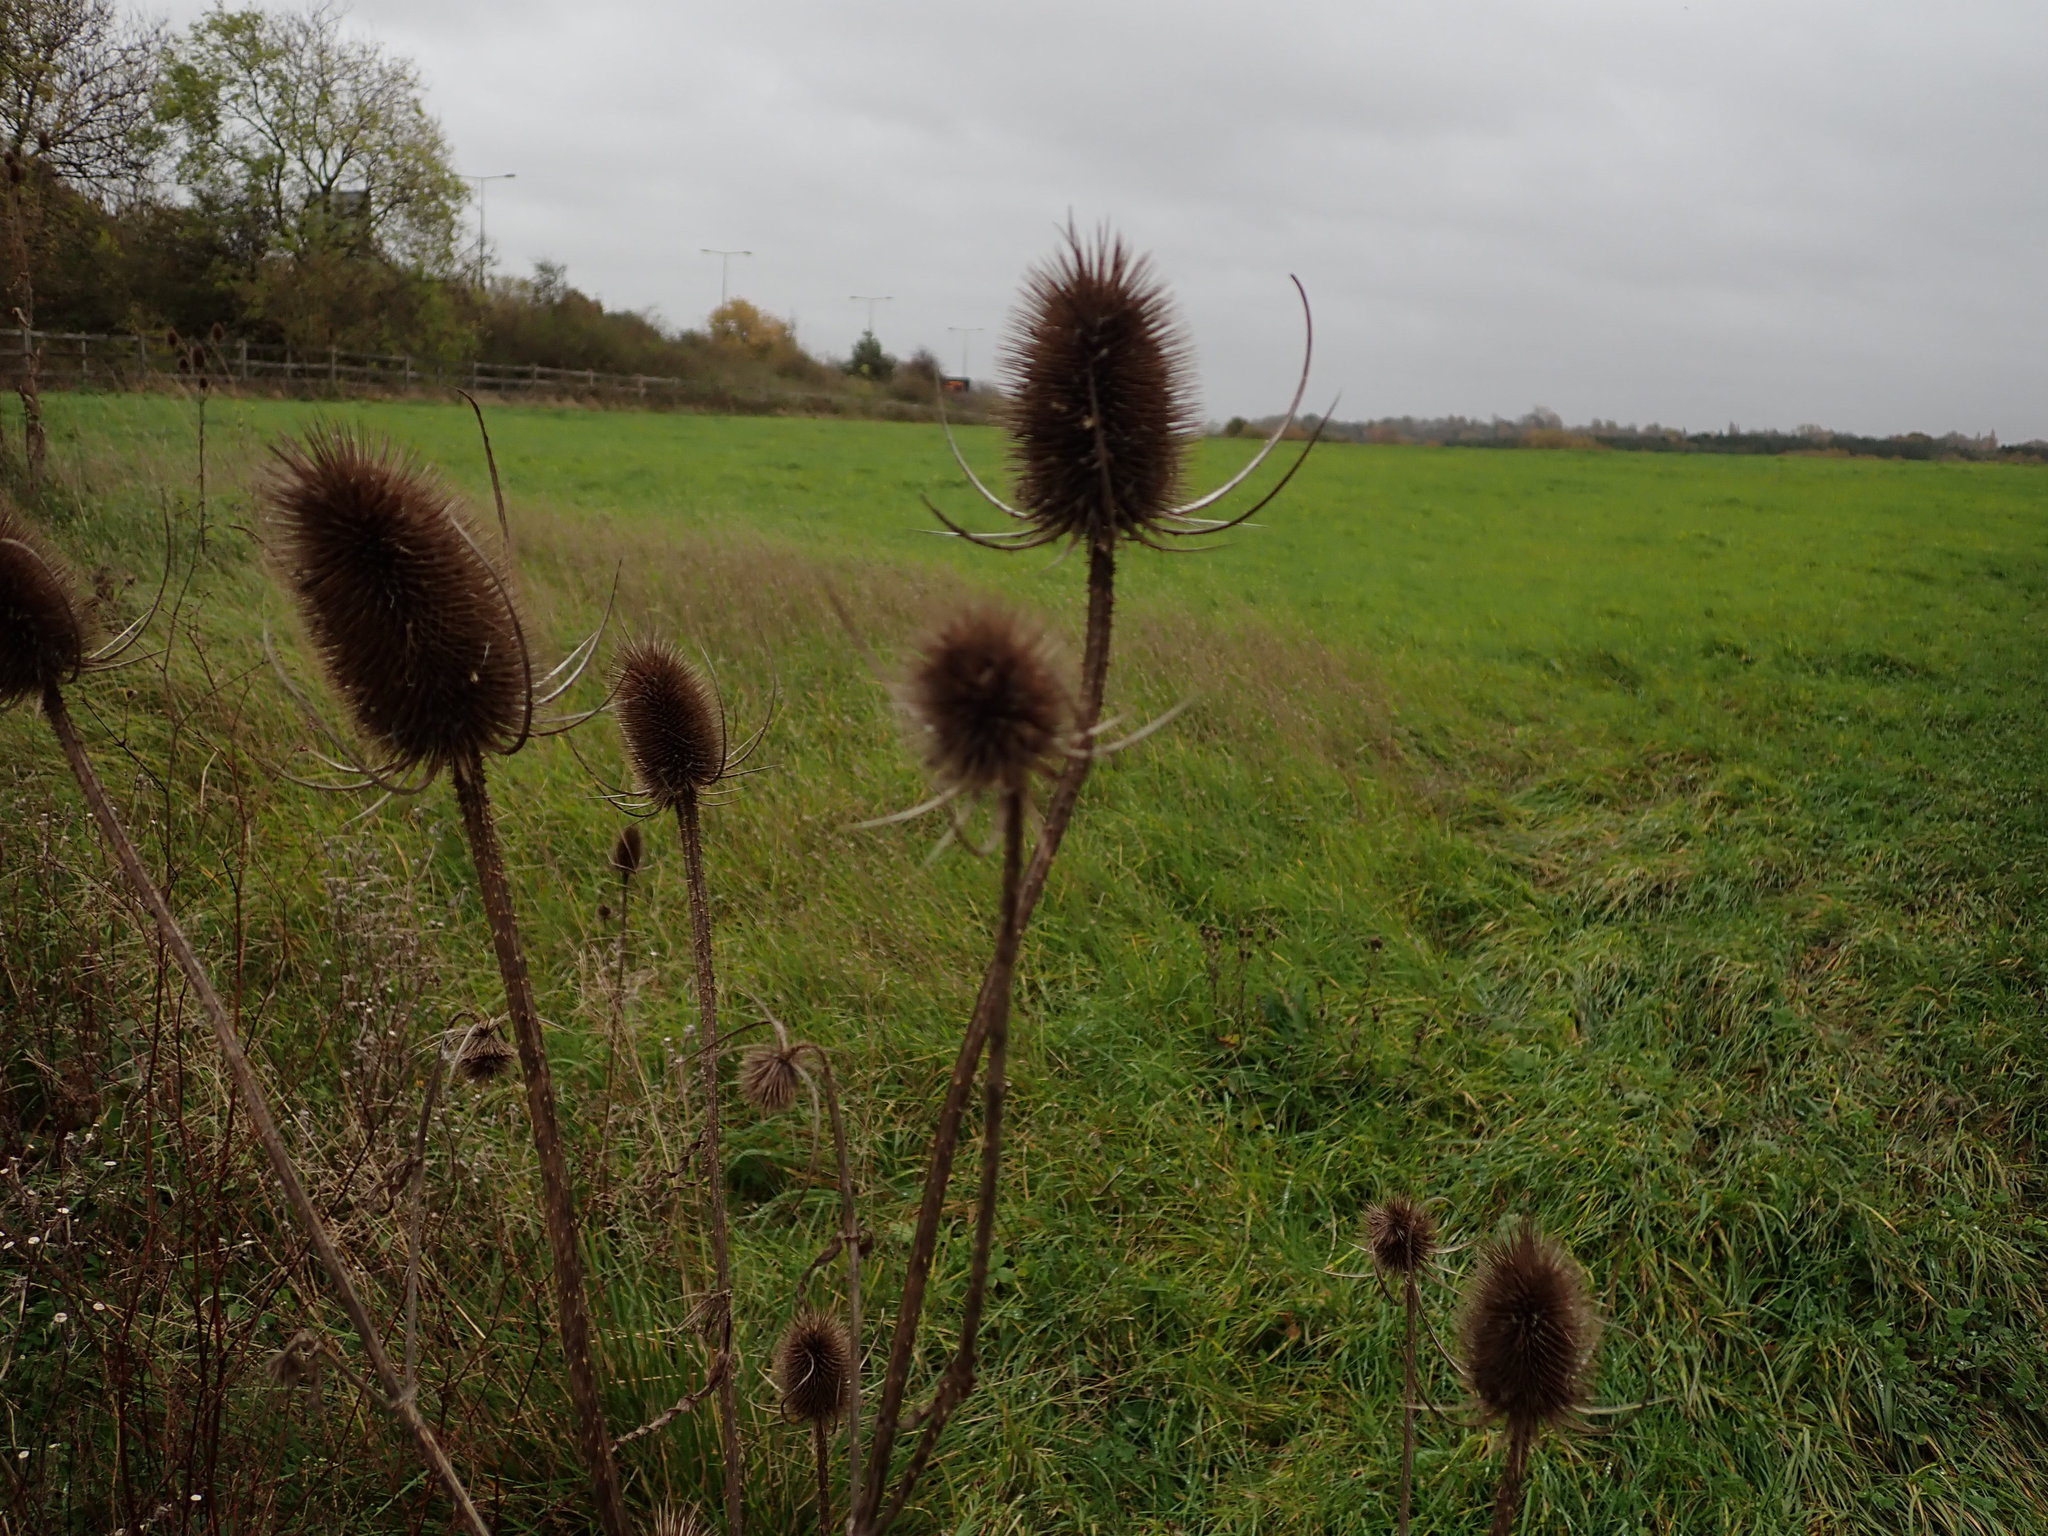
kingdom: Plantae
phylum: Tracheophyta
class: Magnoliopsida
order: Dipsacales
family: Caprifoliaceae
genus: Dipsacus
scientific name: Dipsacus fullonum
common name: Teasel
